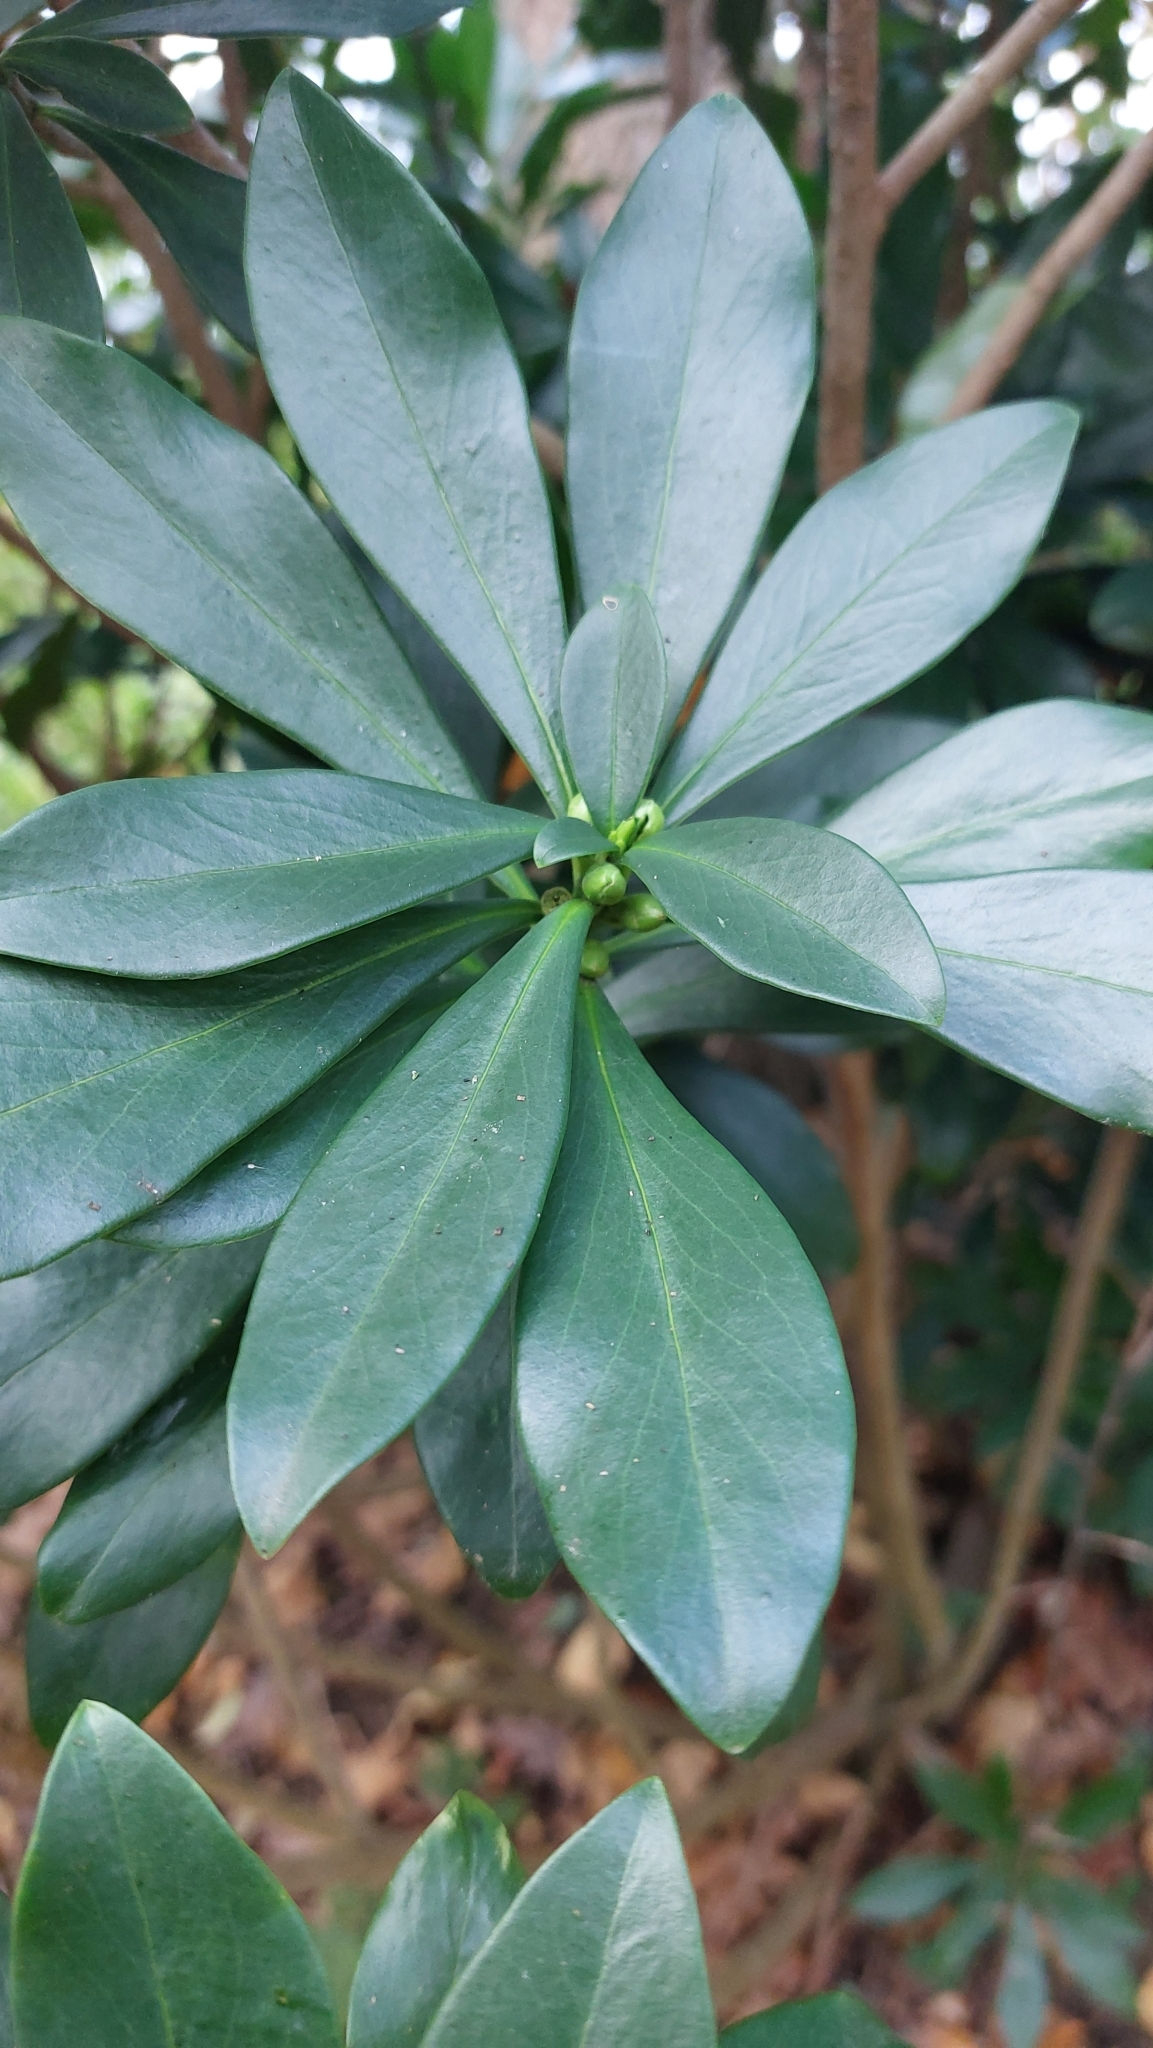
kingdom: Plantae
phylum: Tracheophyta
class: Magnoliopsida
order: Malvales
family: Thymelaeaceae
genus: Daphne
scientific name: Daphne laureola
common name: Spurge-laurel
